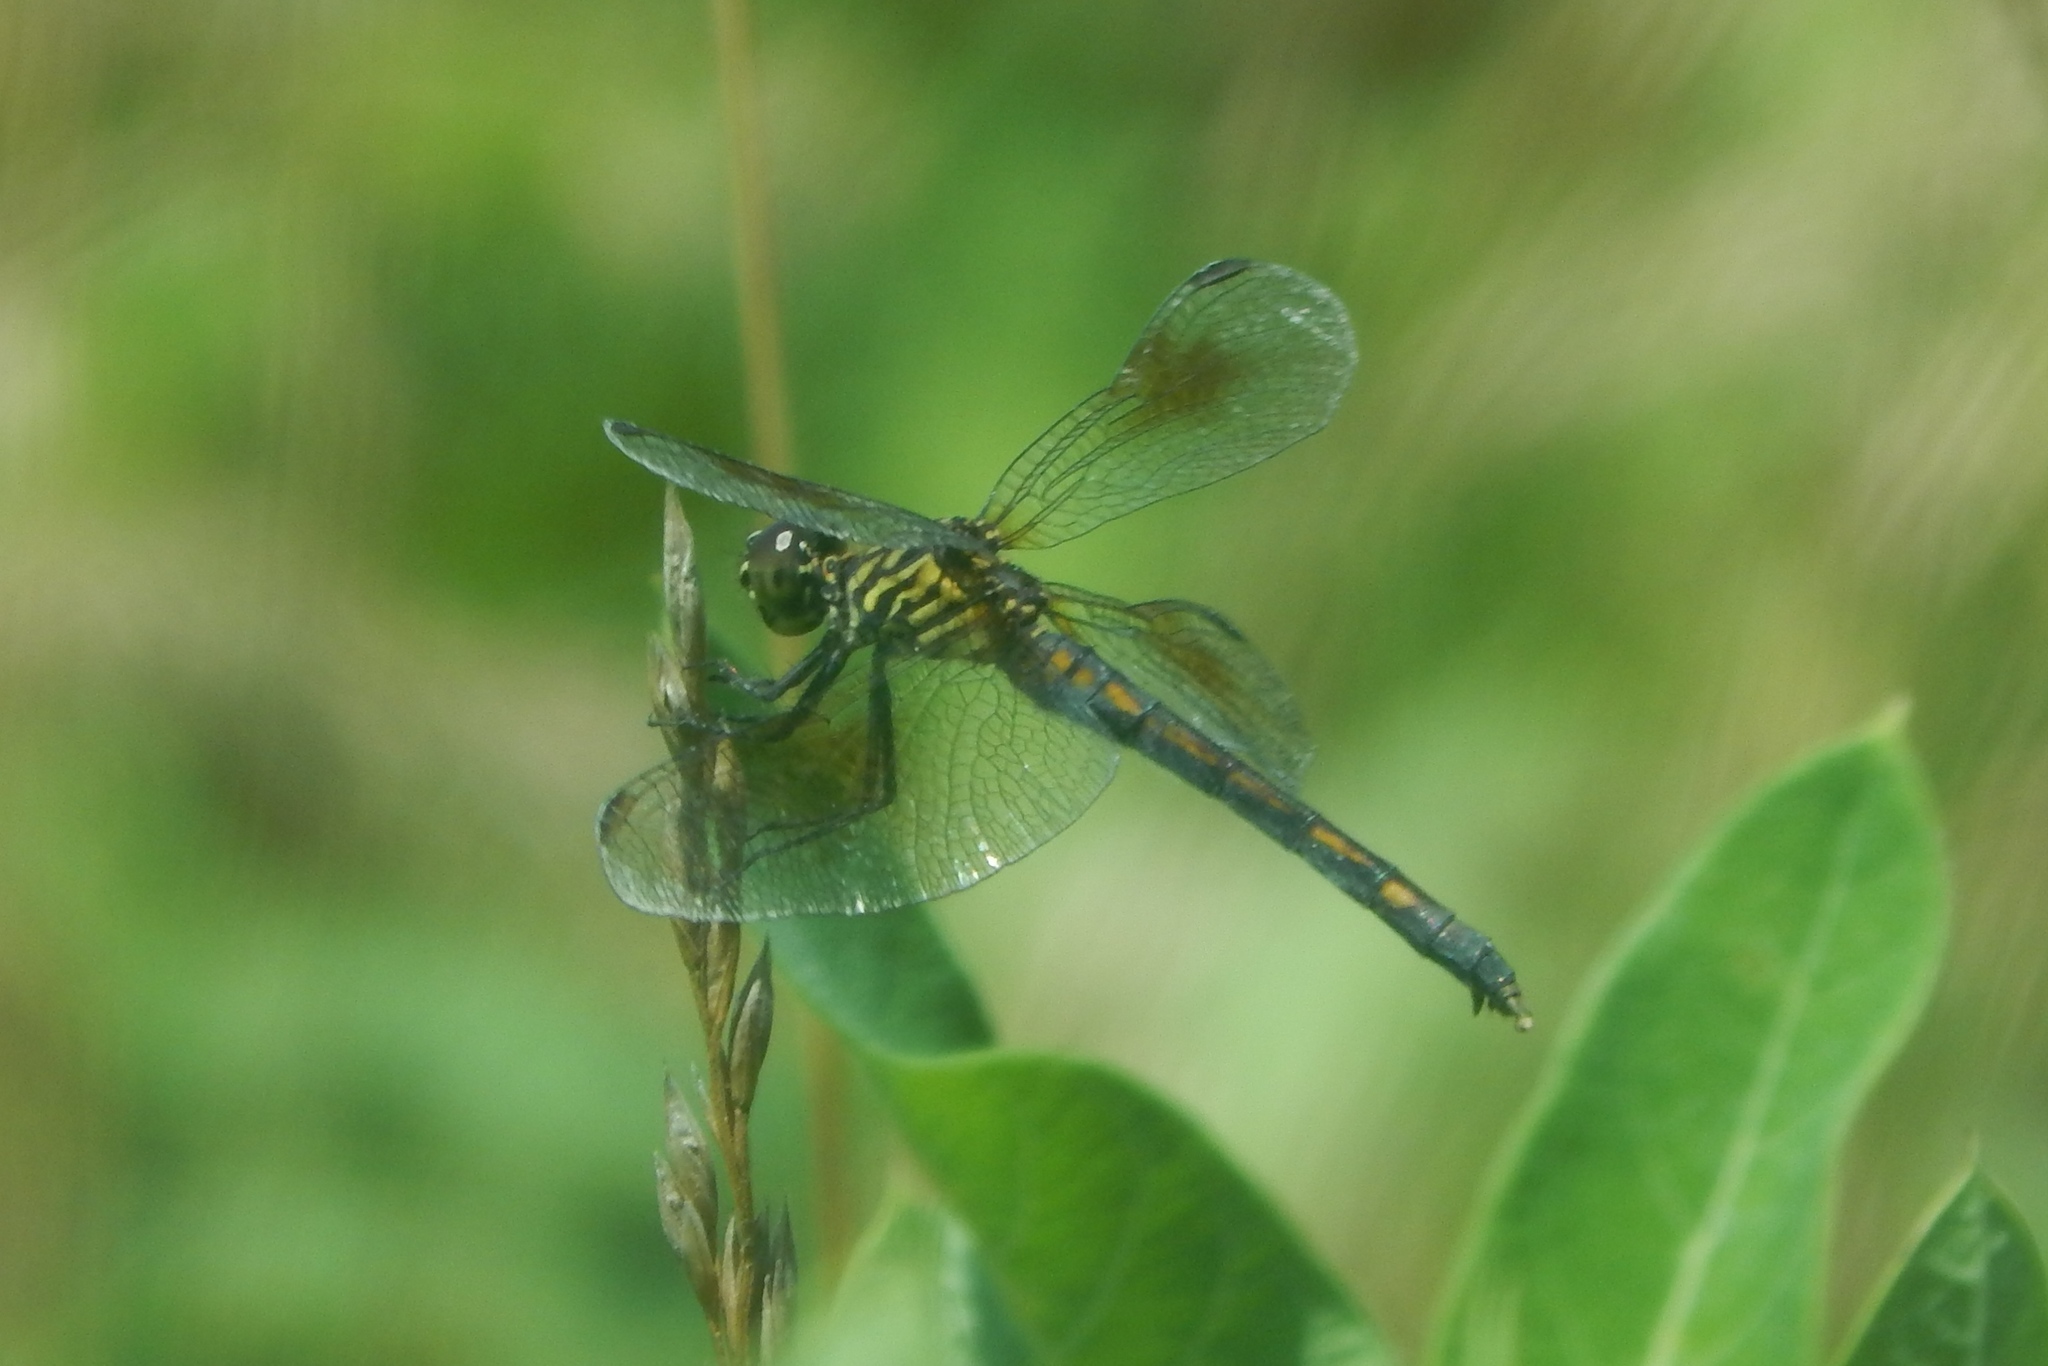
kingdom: Animalia
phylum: Arthropoda
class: Insecta
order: Odonata
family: Libellulidae
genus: Erythrodiplax
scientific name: Erythrodiplax berenice
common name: Seaside dragonlet
